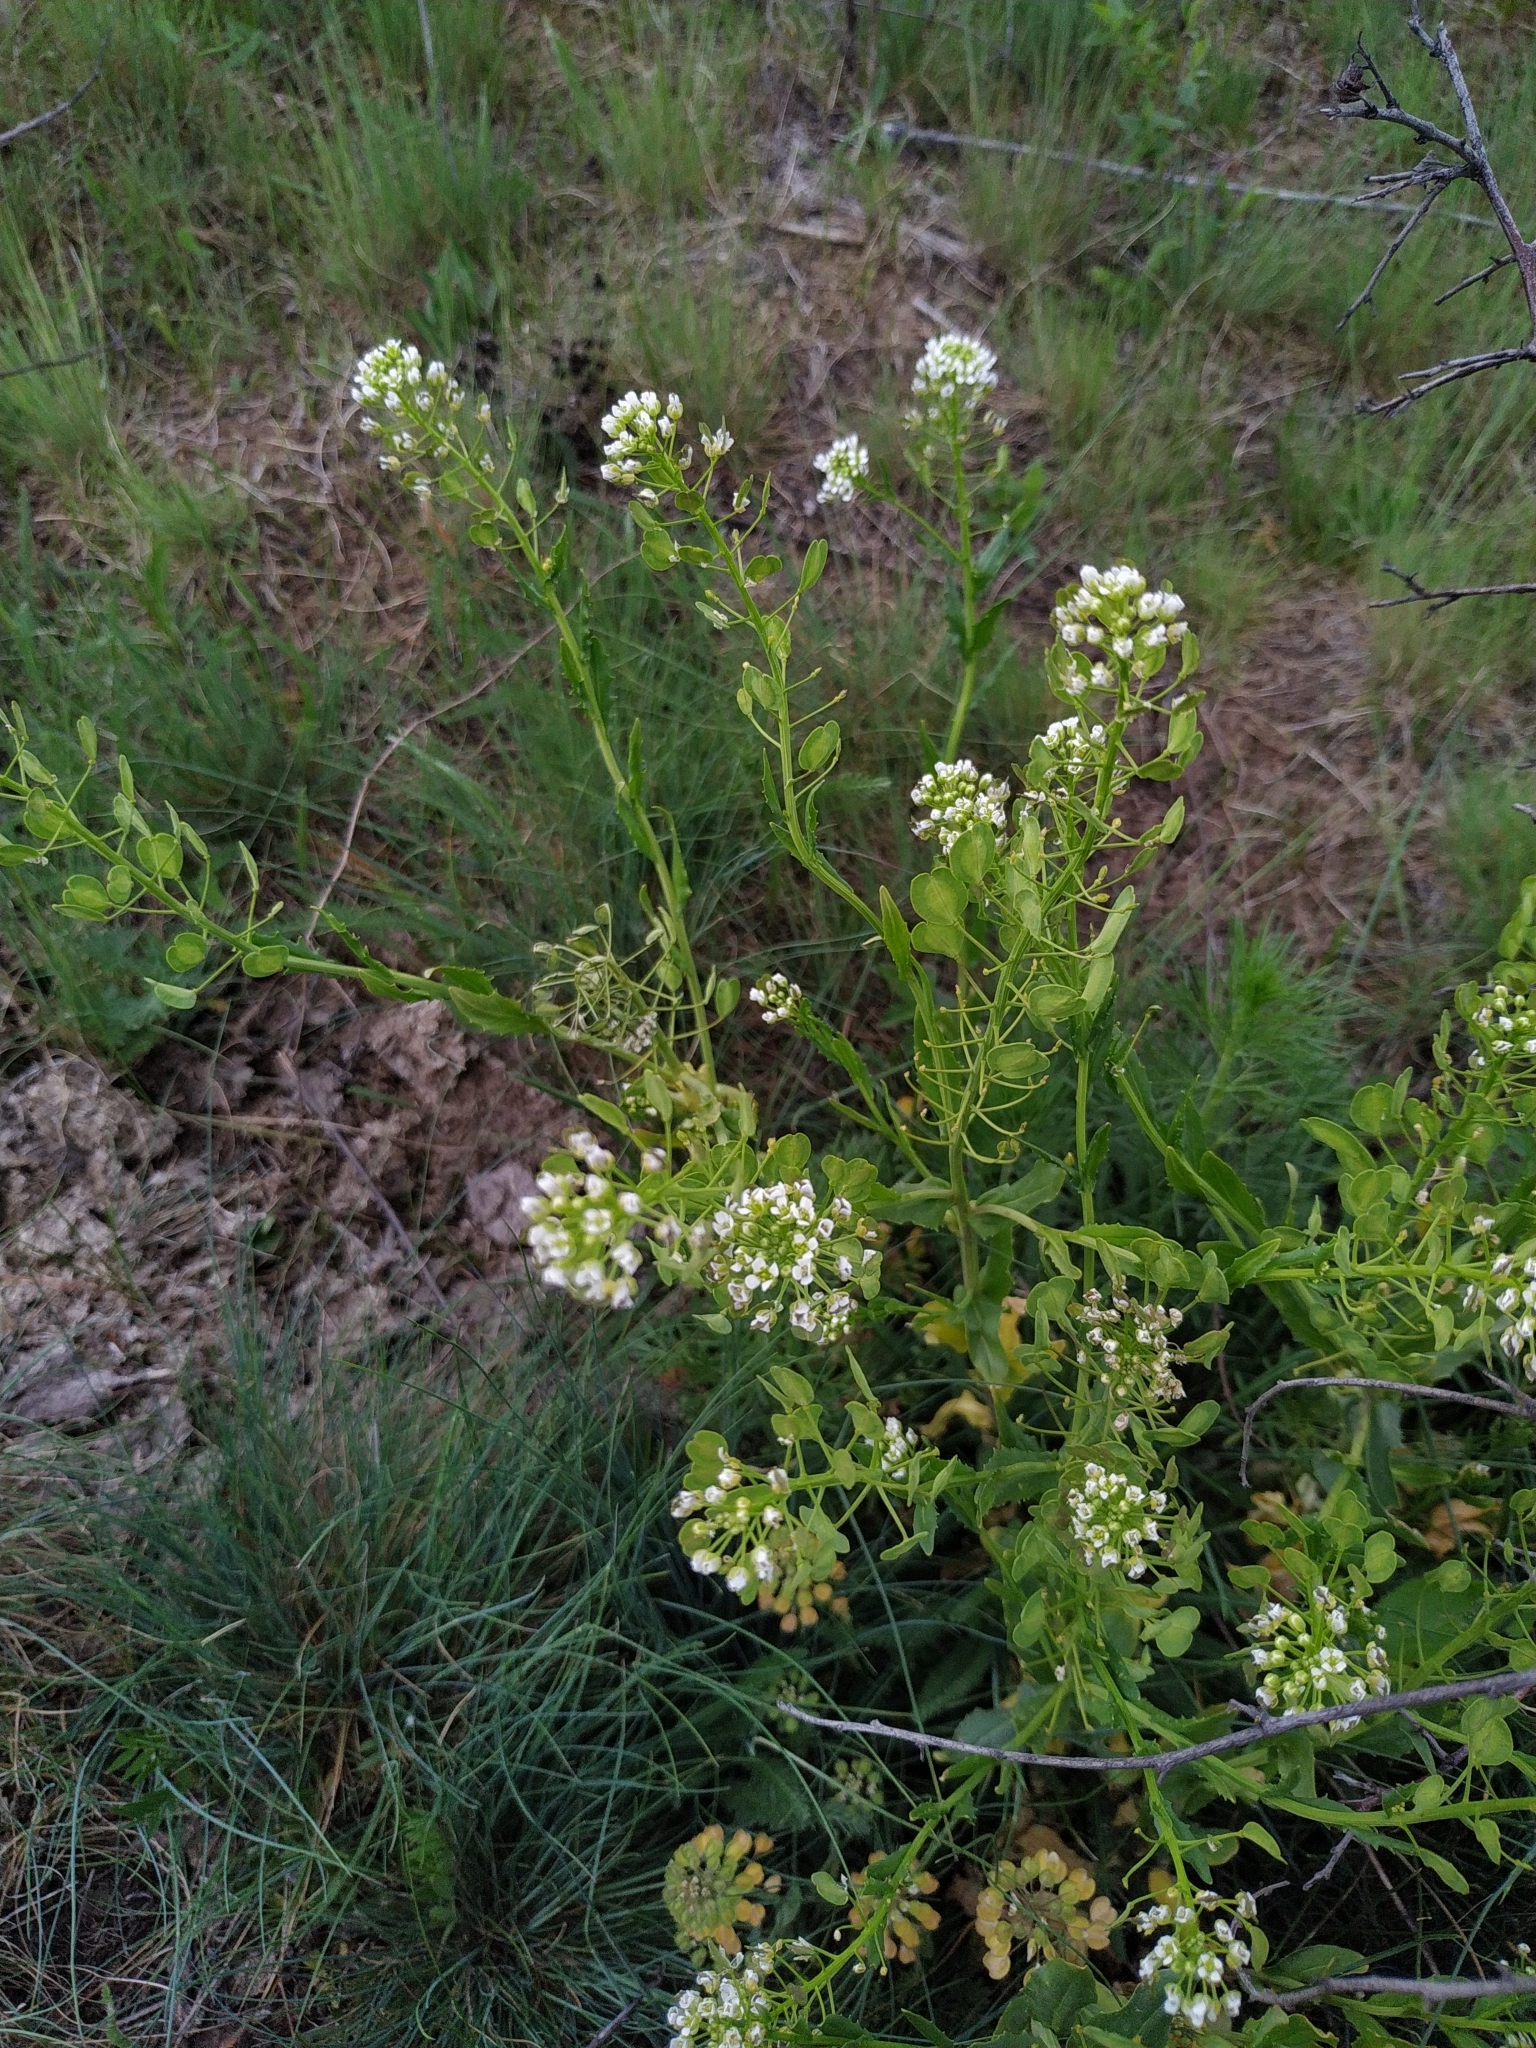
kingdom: Plantae
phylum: Tracheophyta
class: Magnoliopsida
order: Brassicales
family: Brassicaceae
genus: Thlaspi
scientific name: Thlaspi arvense
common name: Field pennycress
